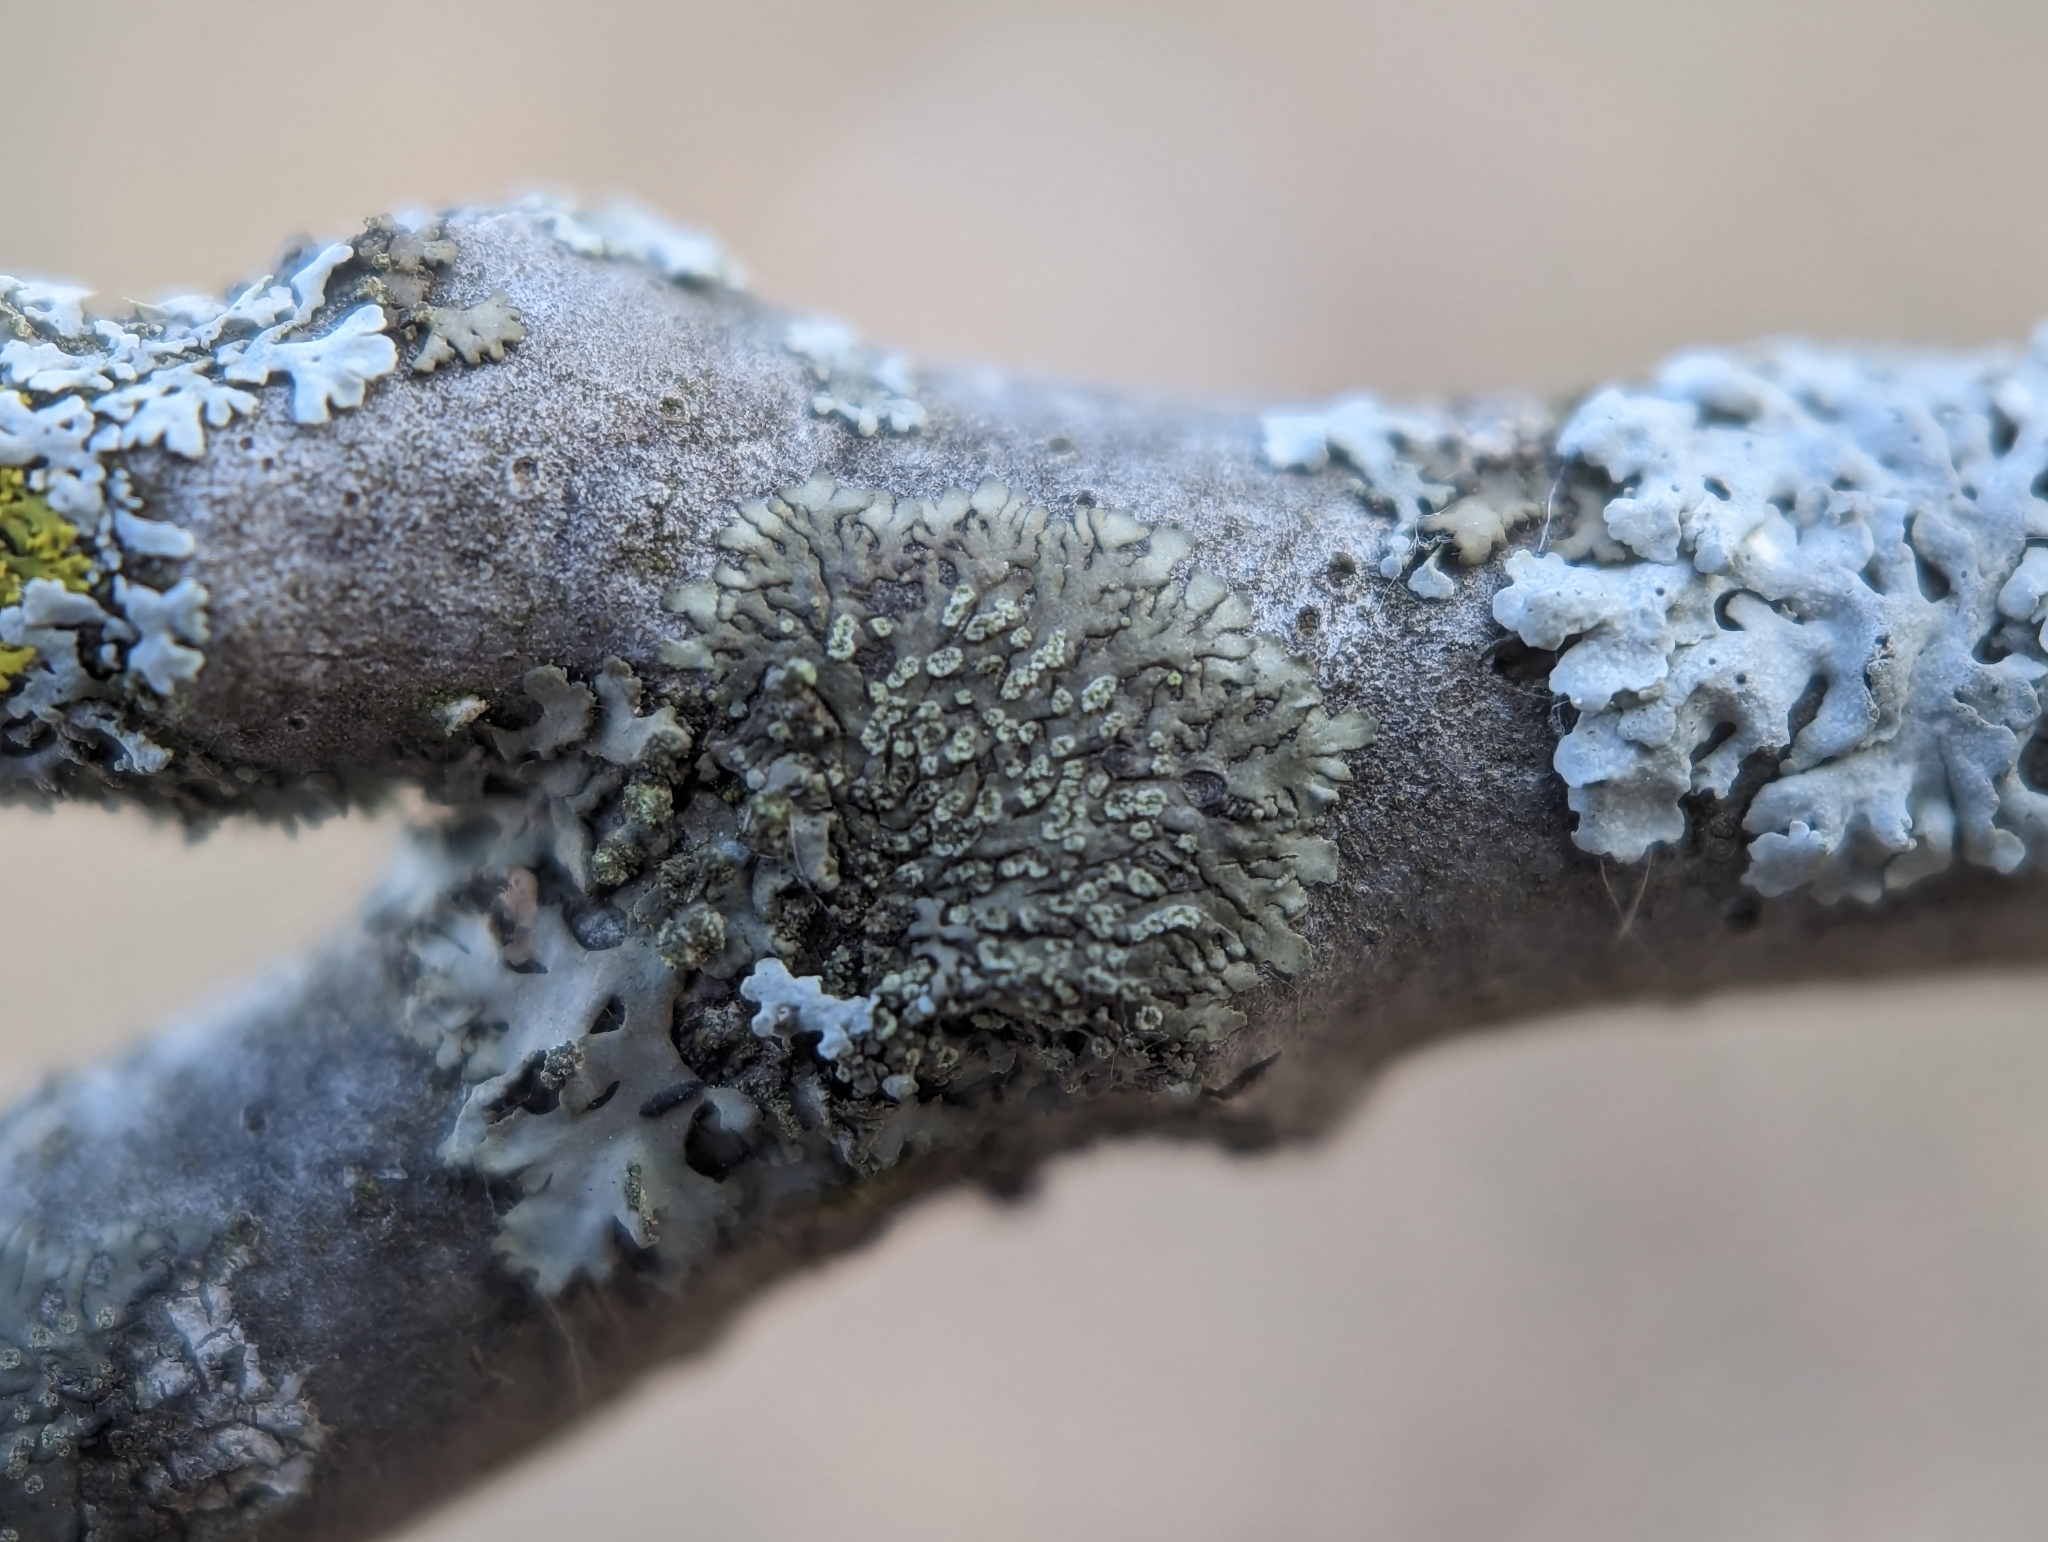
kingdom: Fungi
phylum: Ascomycota
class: Lecanoromycetes
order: Caliciales
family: Physciaceae
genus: Hyperphyscia
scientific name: Hyperphyscia adglutinata
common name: Grainy shadow-crust lichen
